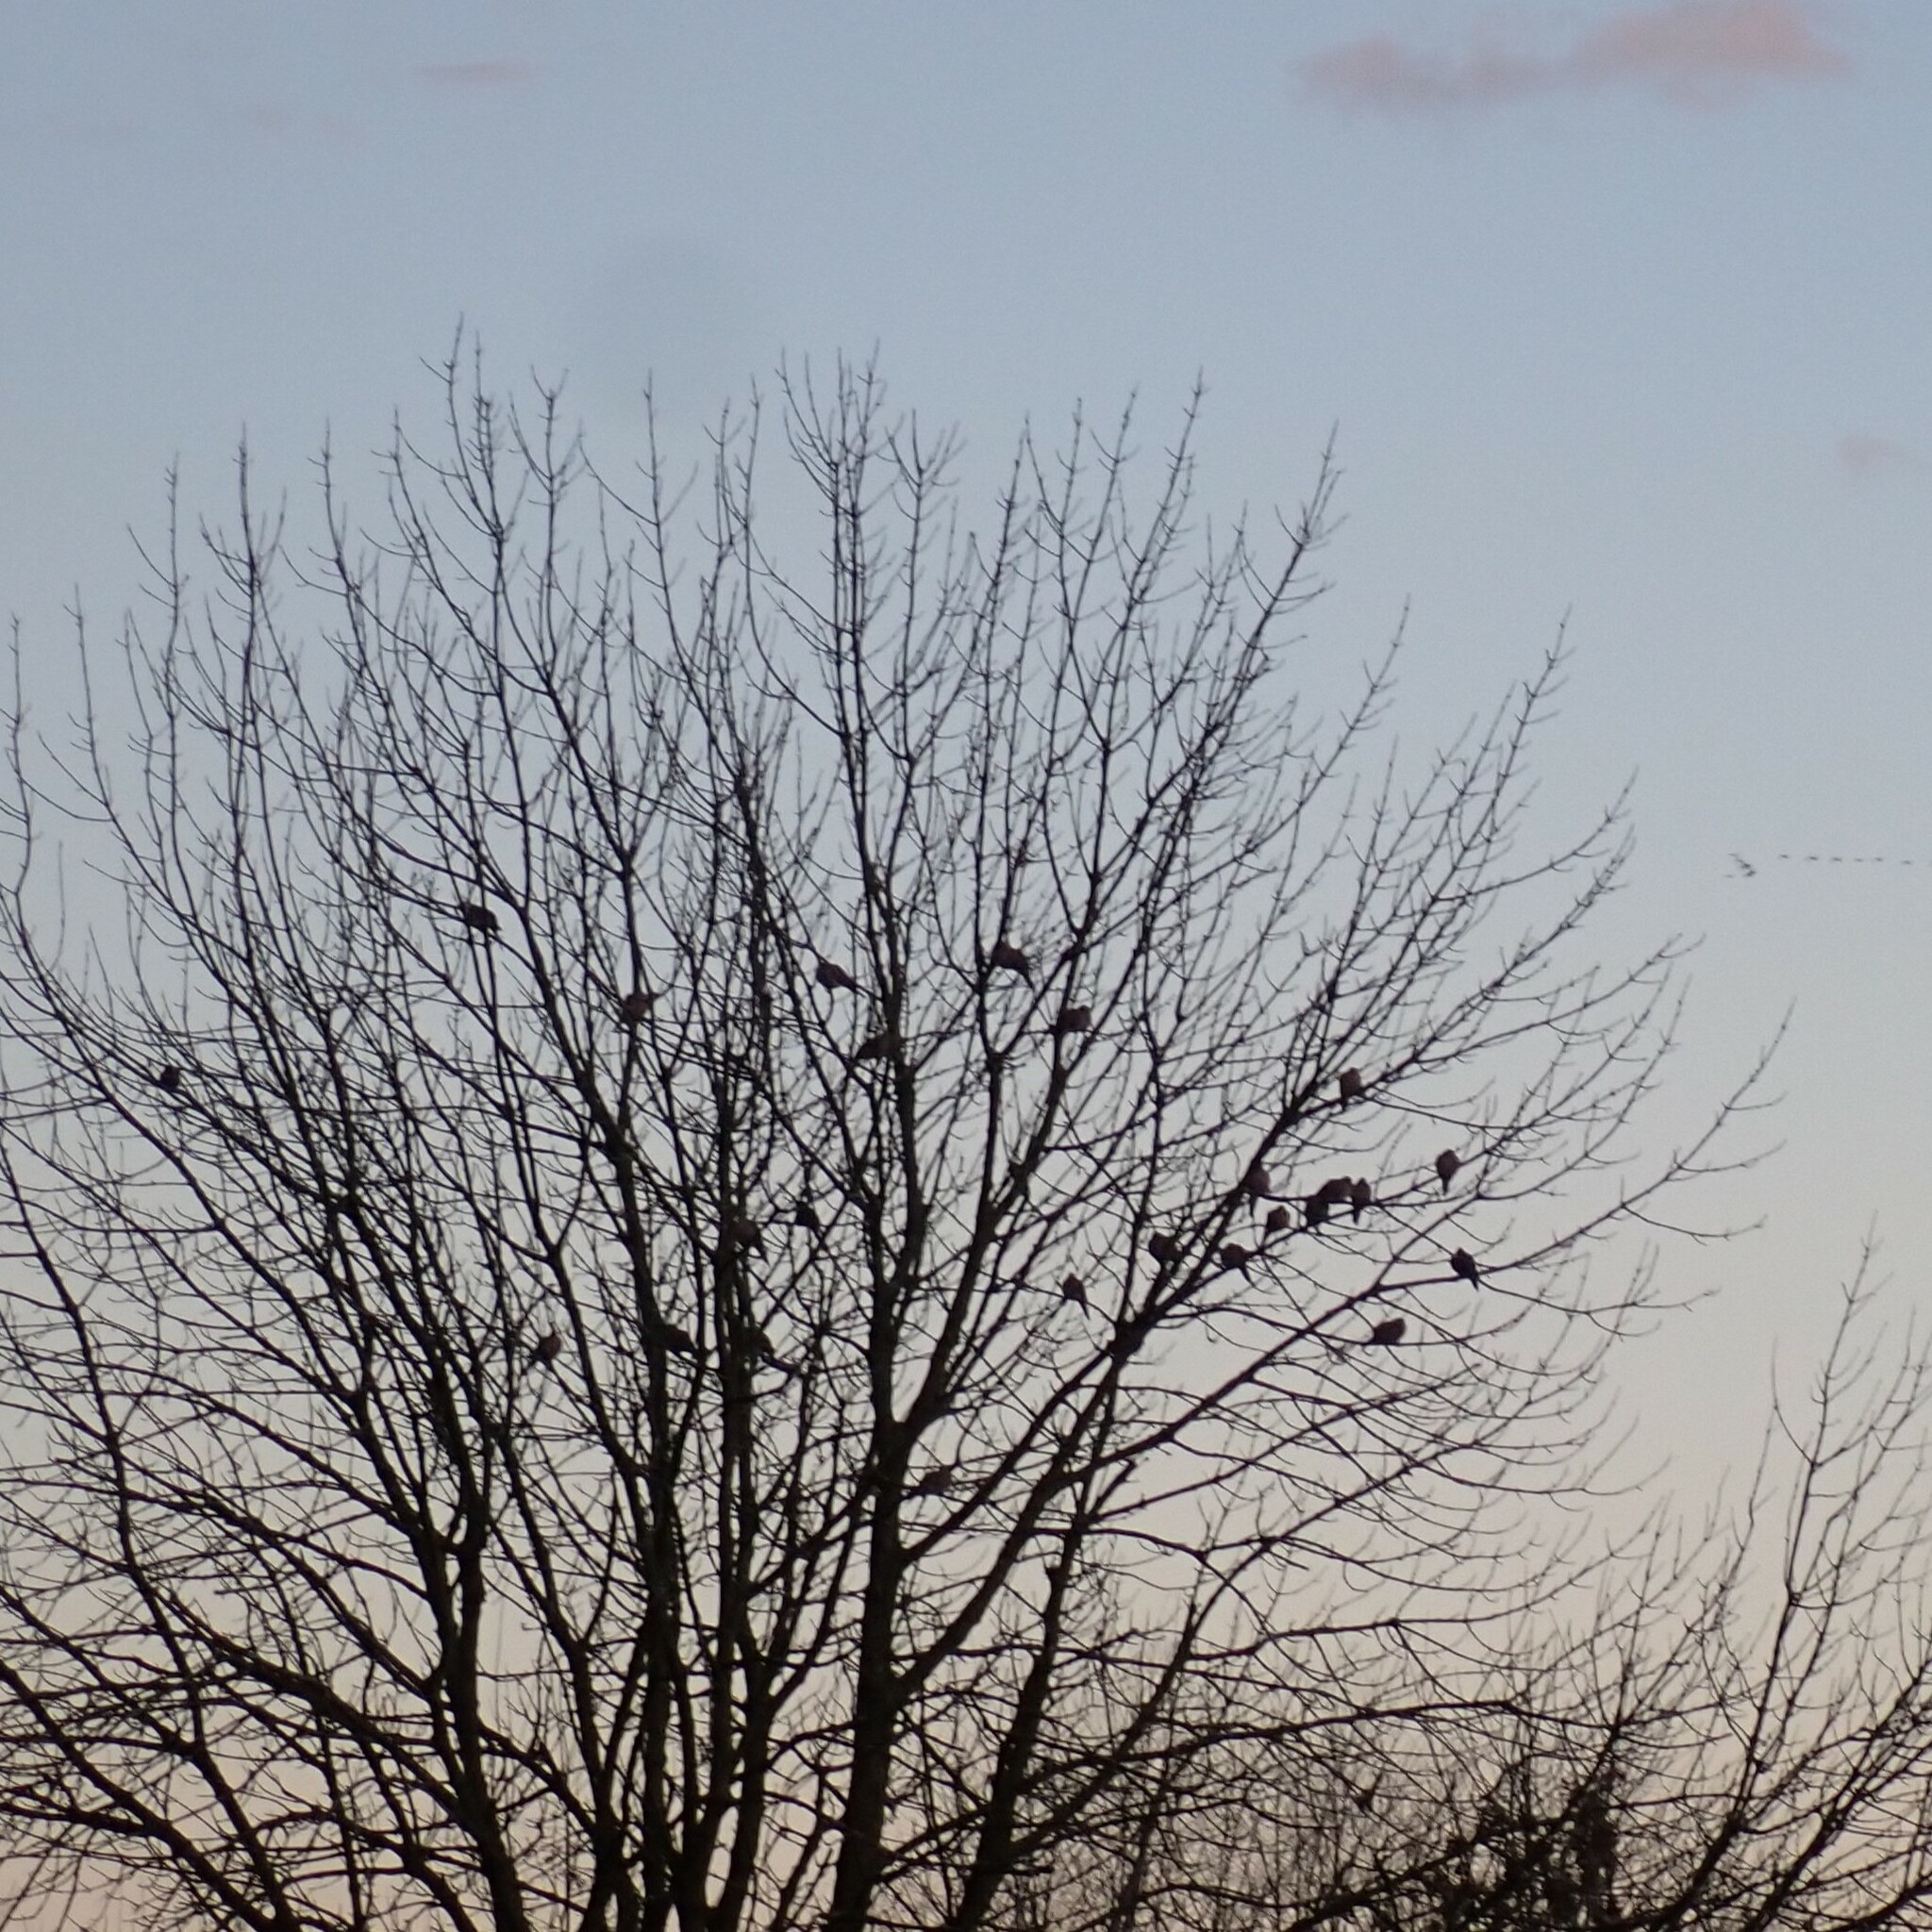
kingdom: Animalia
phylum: Chordata
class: Aves
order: Columbiformes
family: Columbidae
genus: Zenaida
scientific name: Zenaida macroura
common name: Mourning dove
